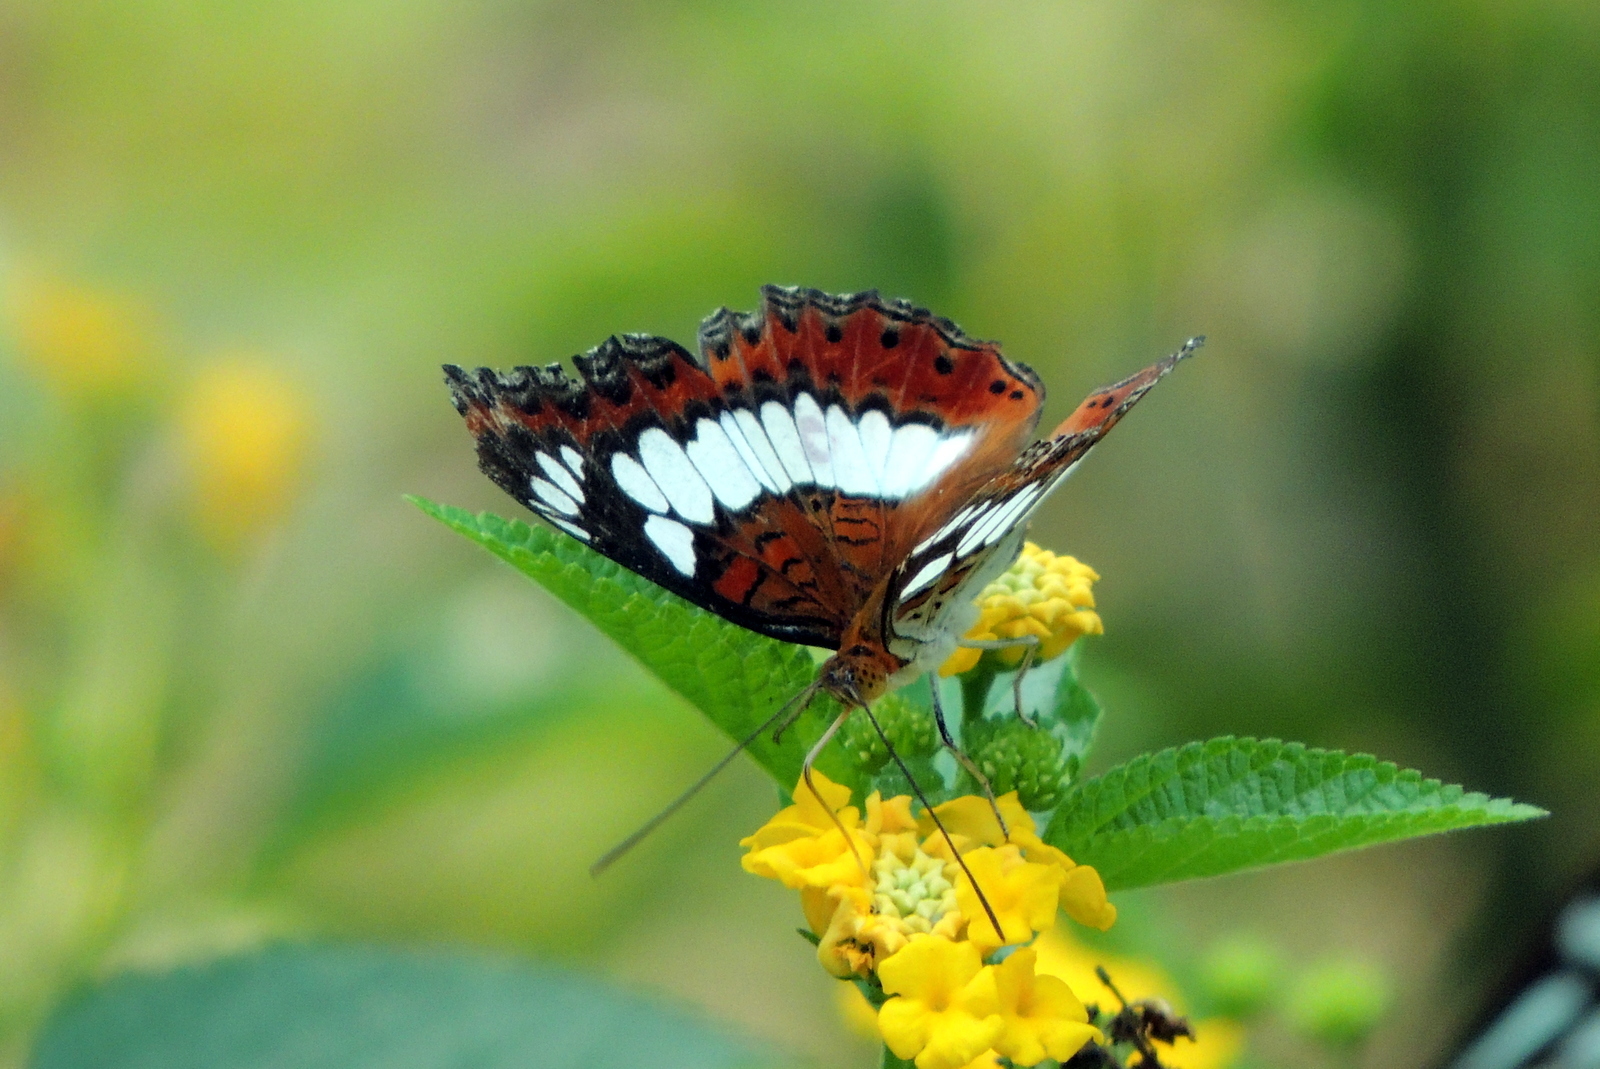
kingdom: Animalia
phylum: Arthropoda
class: Insecta
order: Lepidoptera
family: Nymphalidae
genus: Limenitis
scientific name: Limenitis Moduza procris
